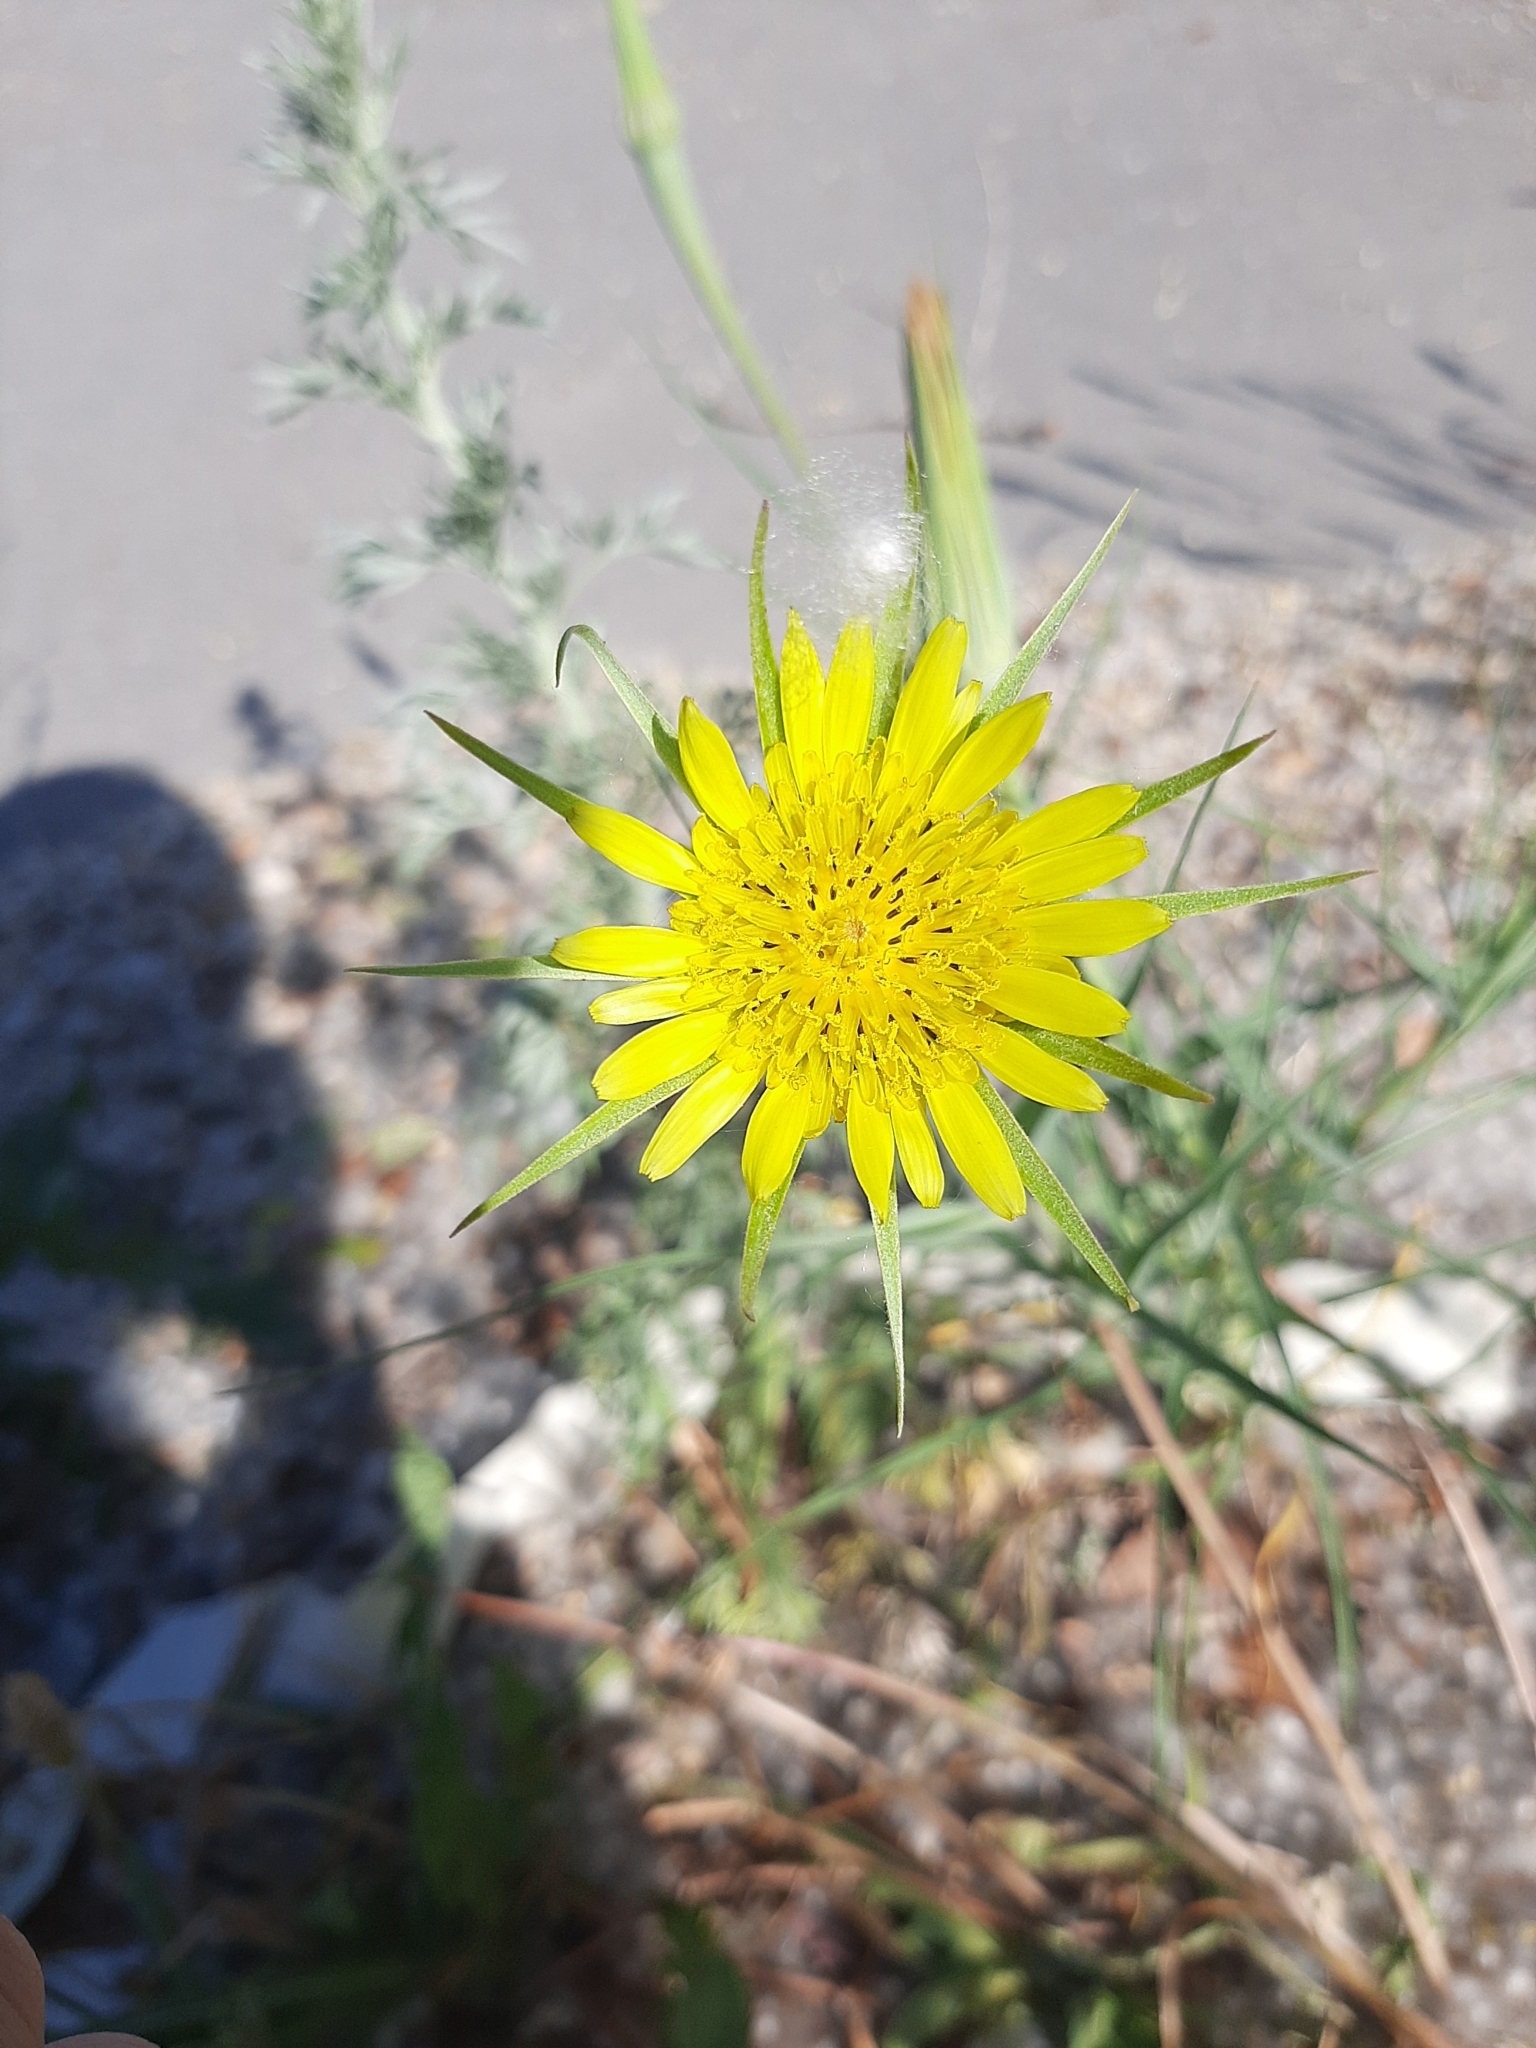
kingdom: Plantae
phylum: Tracheophyta
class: Magnoliopsida
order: Asterales
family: Asteraceae
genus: Tragopogon
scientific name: Tragopogon dubius
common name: Yellow salsify
